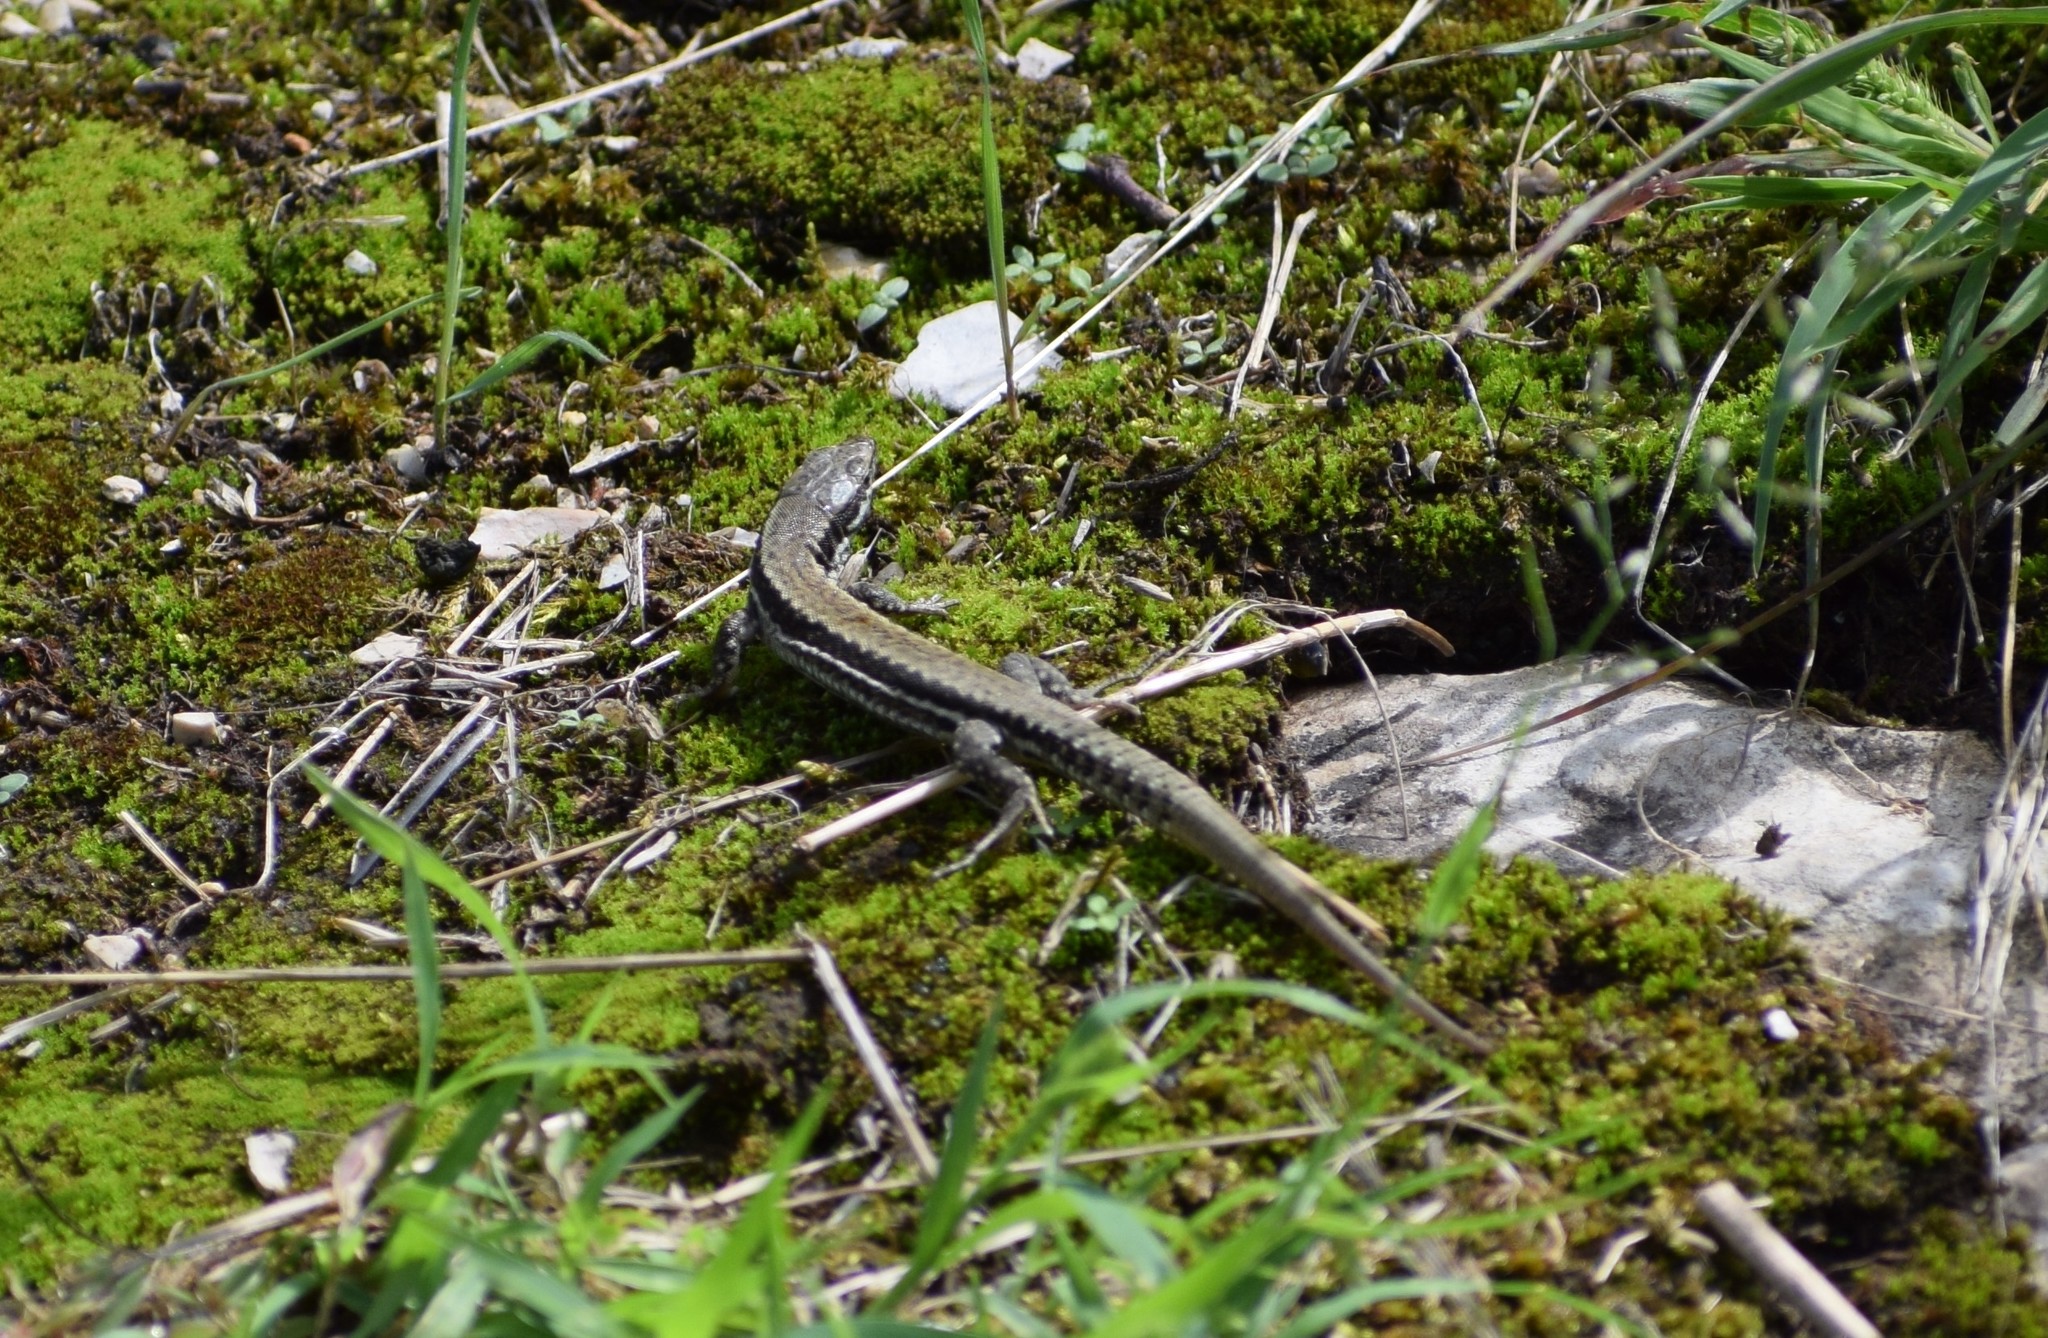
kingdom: Animalia
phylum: Chordata
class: Squamata
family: Lacertidae
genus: Podarcis
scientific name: Podarcis muralis
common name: Common wall lizard
